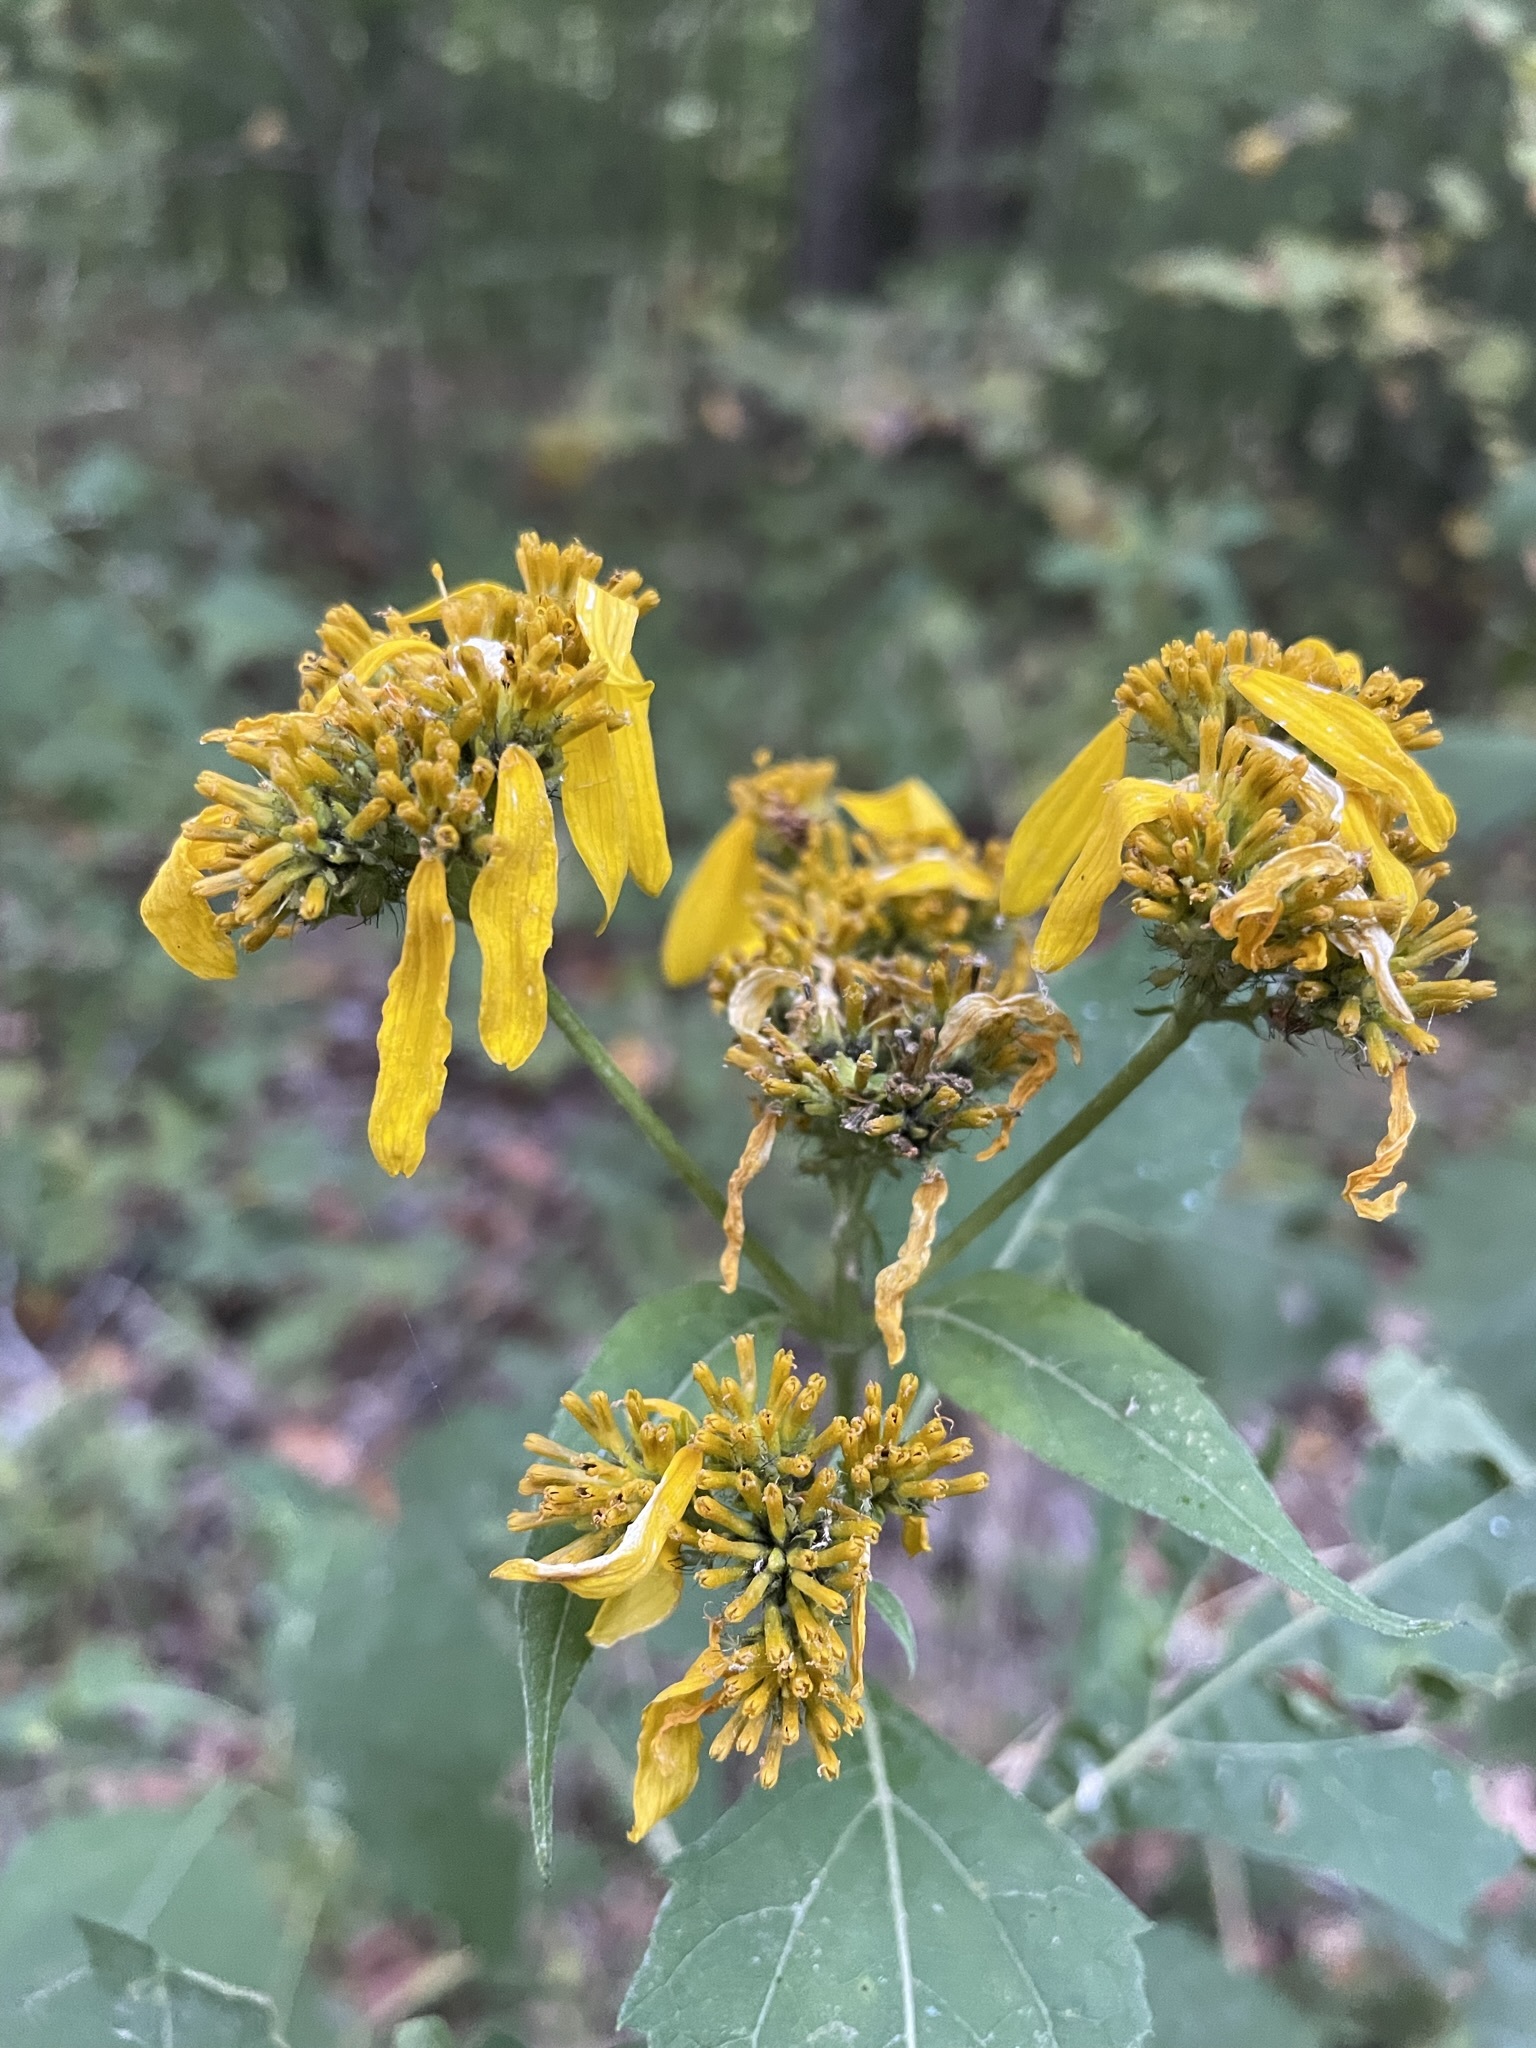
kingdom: Plantae
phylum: Tracheophyta
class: Magnoliopsida
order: Asterales
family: Asteraceae
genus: Verbesina
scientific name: Verbesina occidentalis
